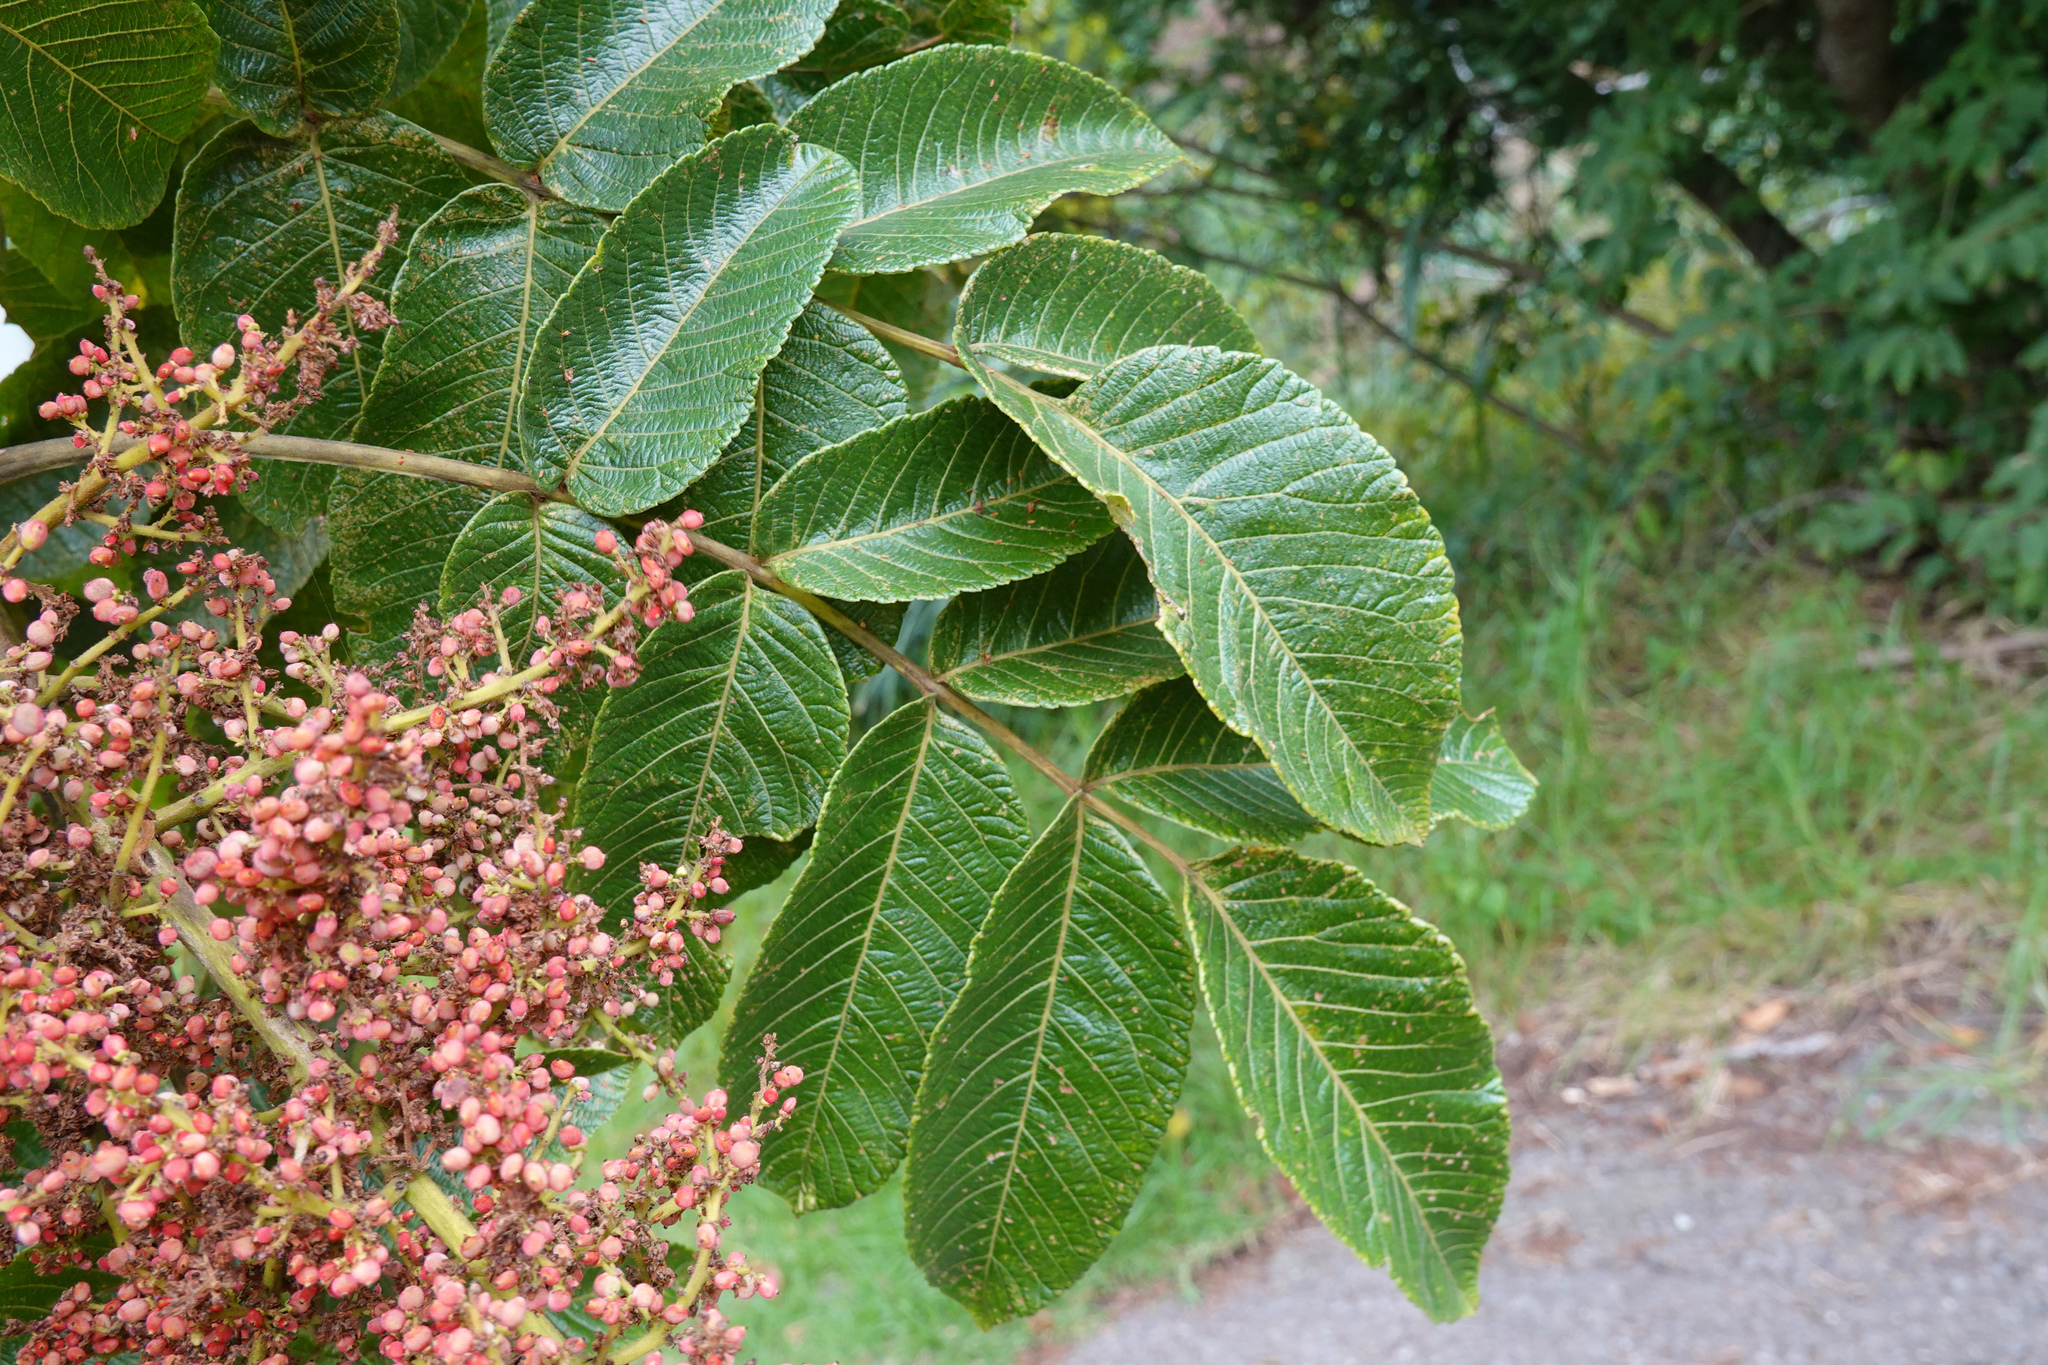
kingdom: Plantae
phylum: Tracheophyta
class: Magnoliopsida
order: Sapindales
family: Anacardiaceae
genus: Rhus
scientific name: Rhus chinensis
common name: Chinese gall
